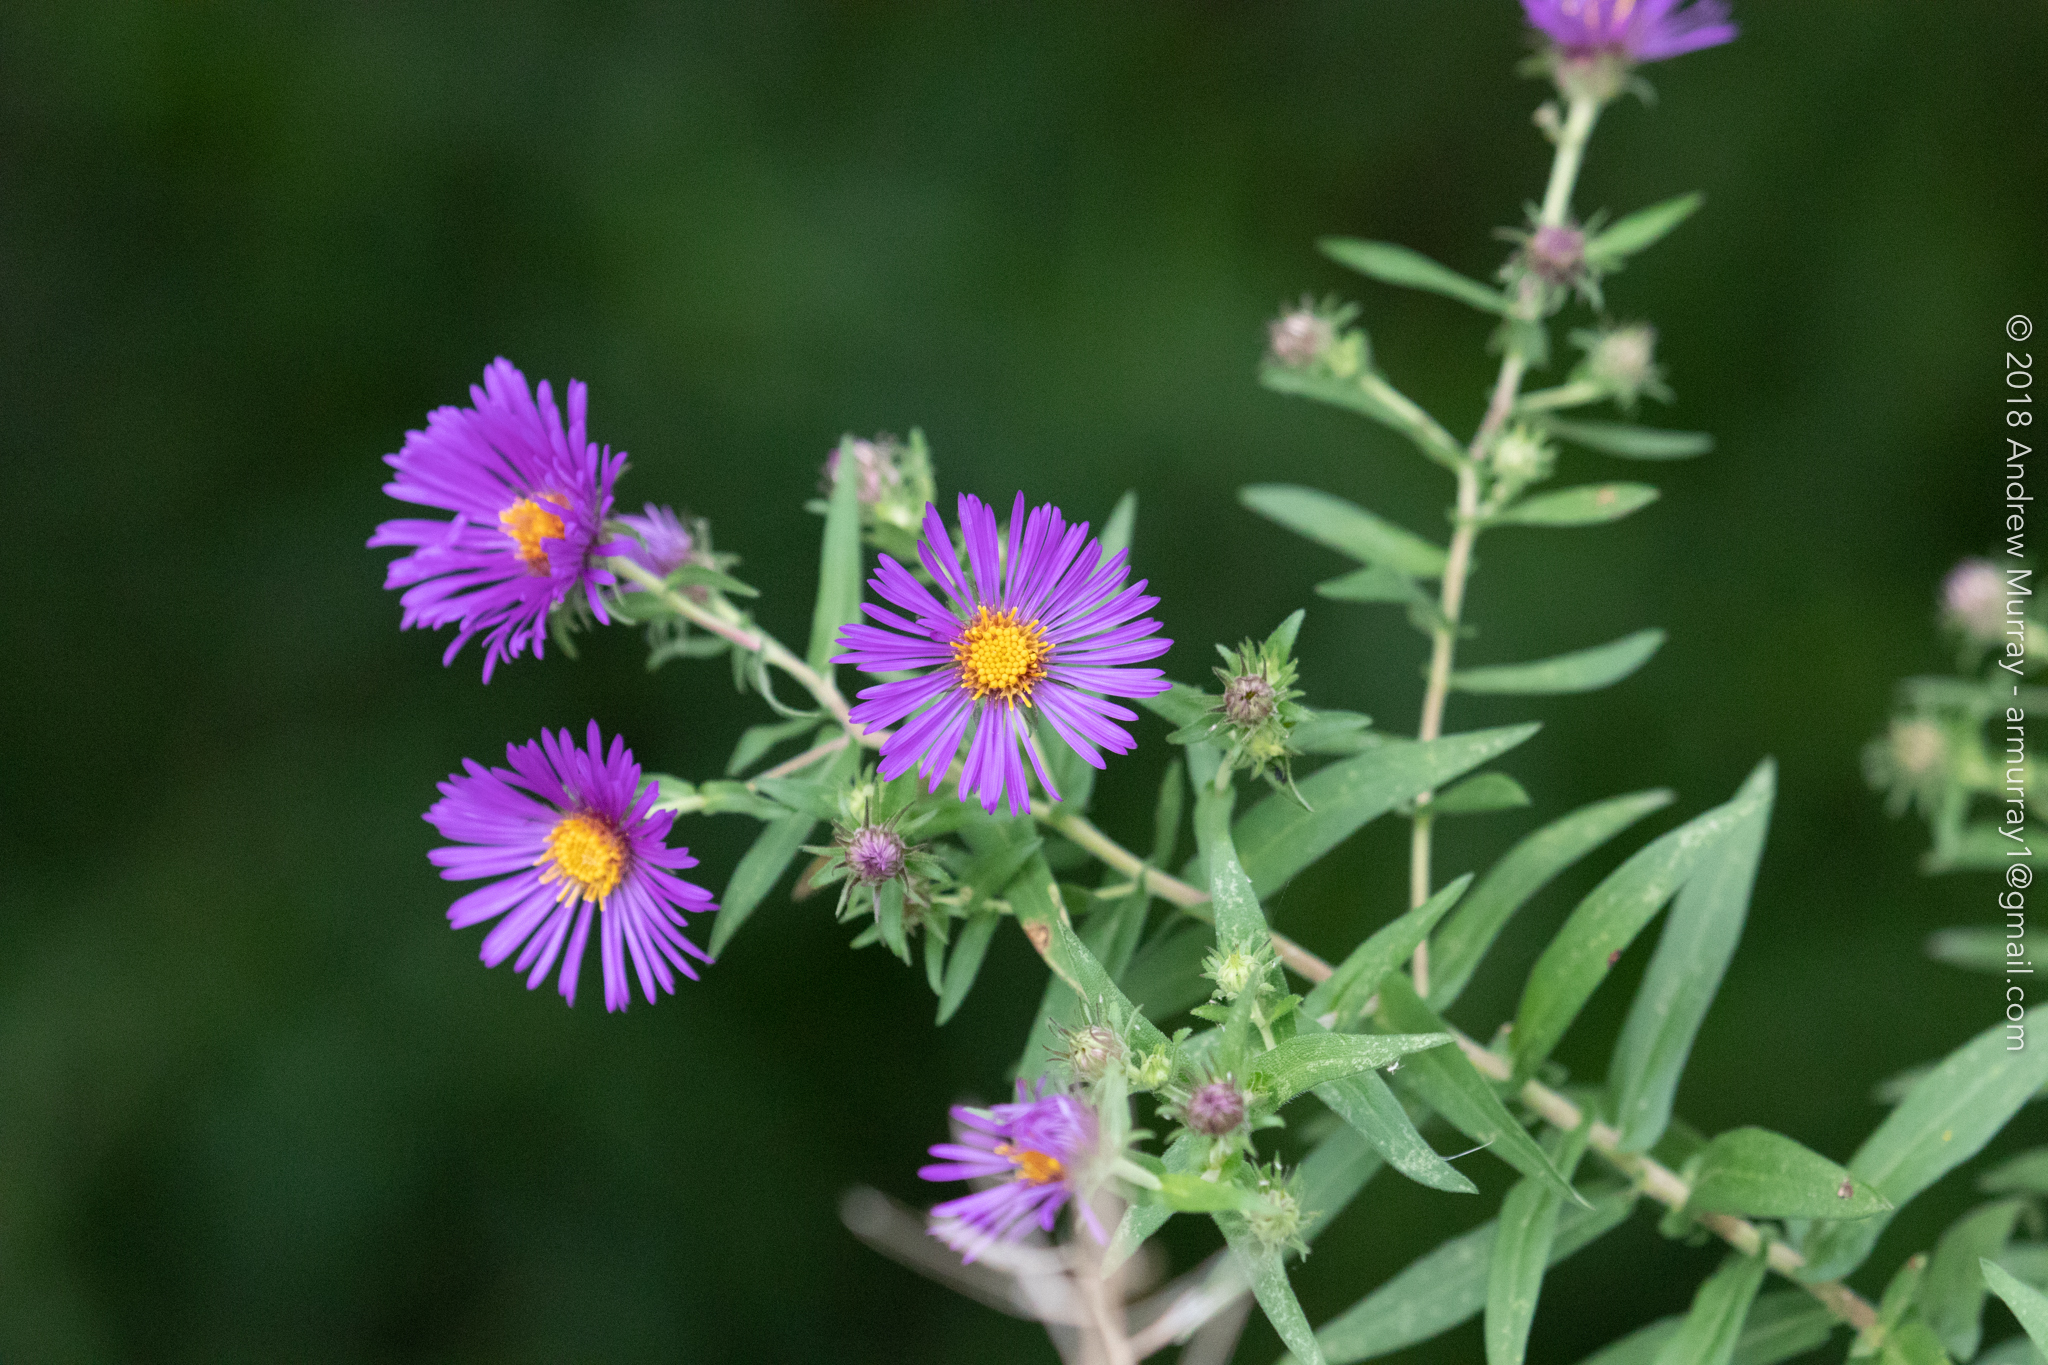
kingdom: Plantae
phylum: Tracheophyta
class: Magnoliopsida
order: Asterales
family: Asteraceae
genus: Symphyotrichum
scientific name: Symphyotrichum novae-angliae
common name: Michaelmas daisy
